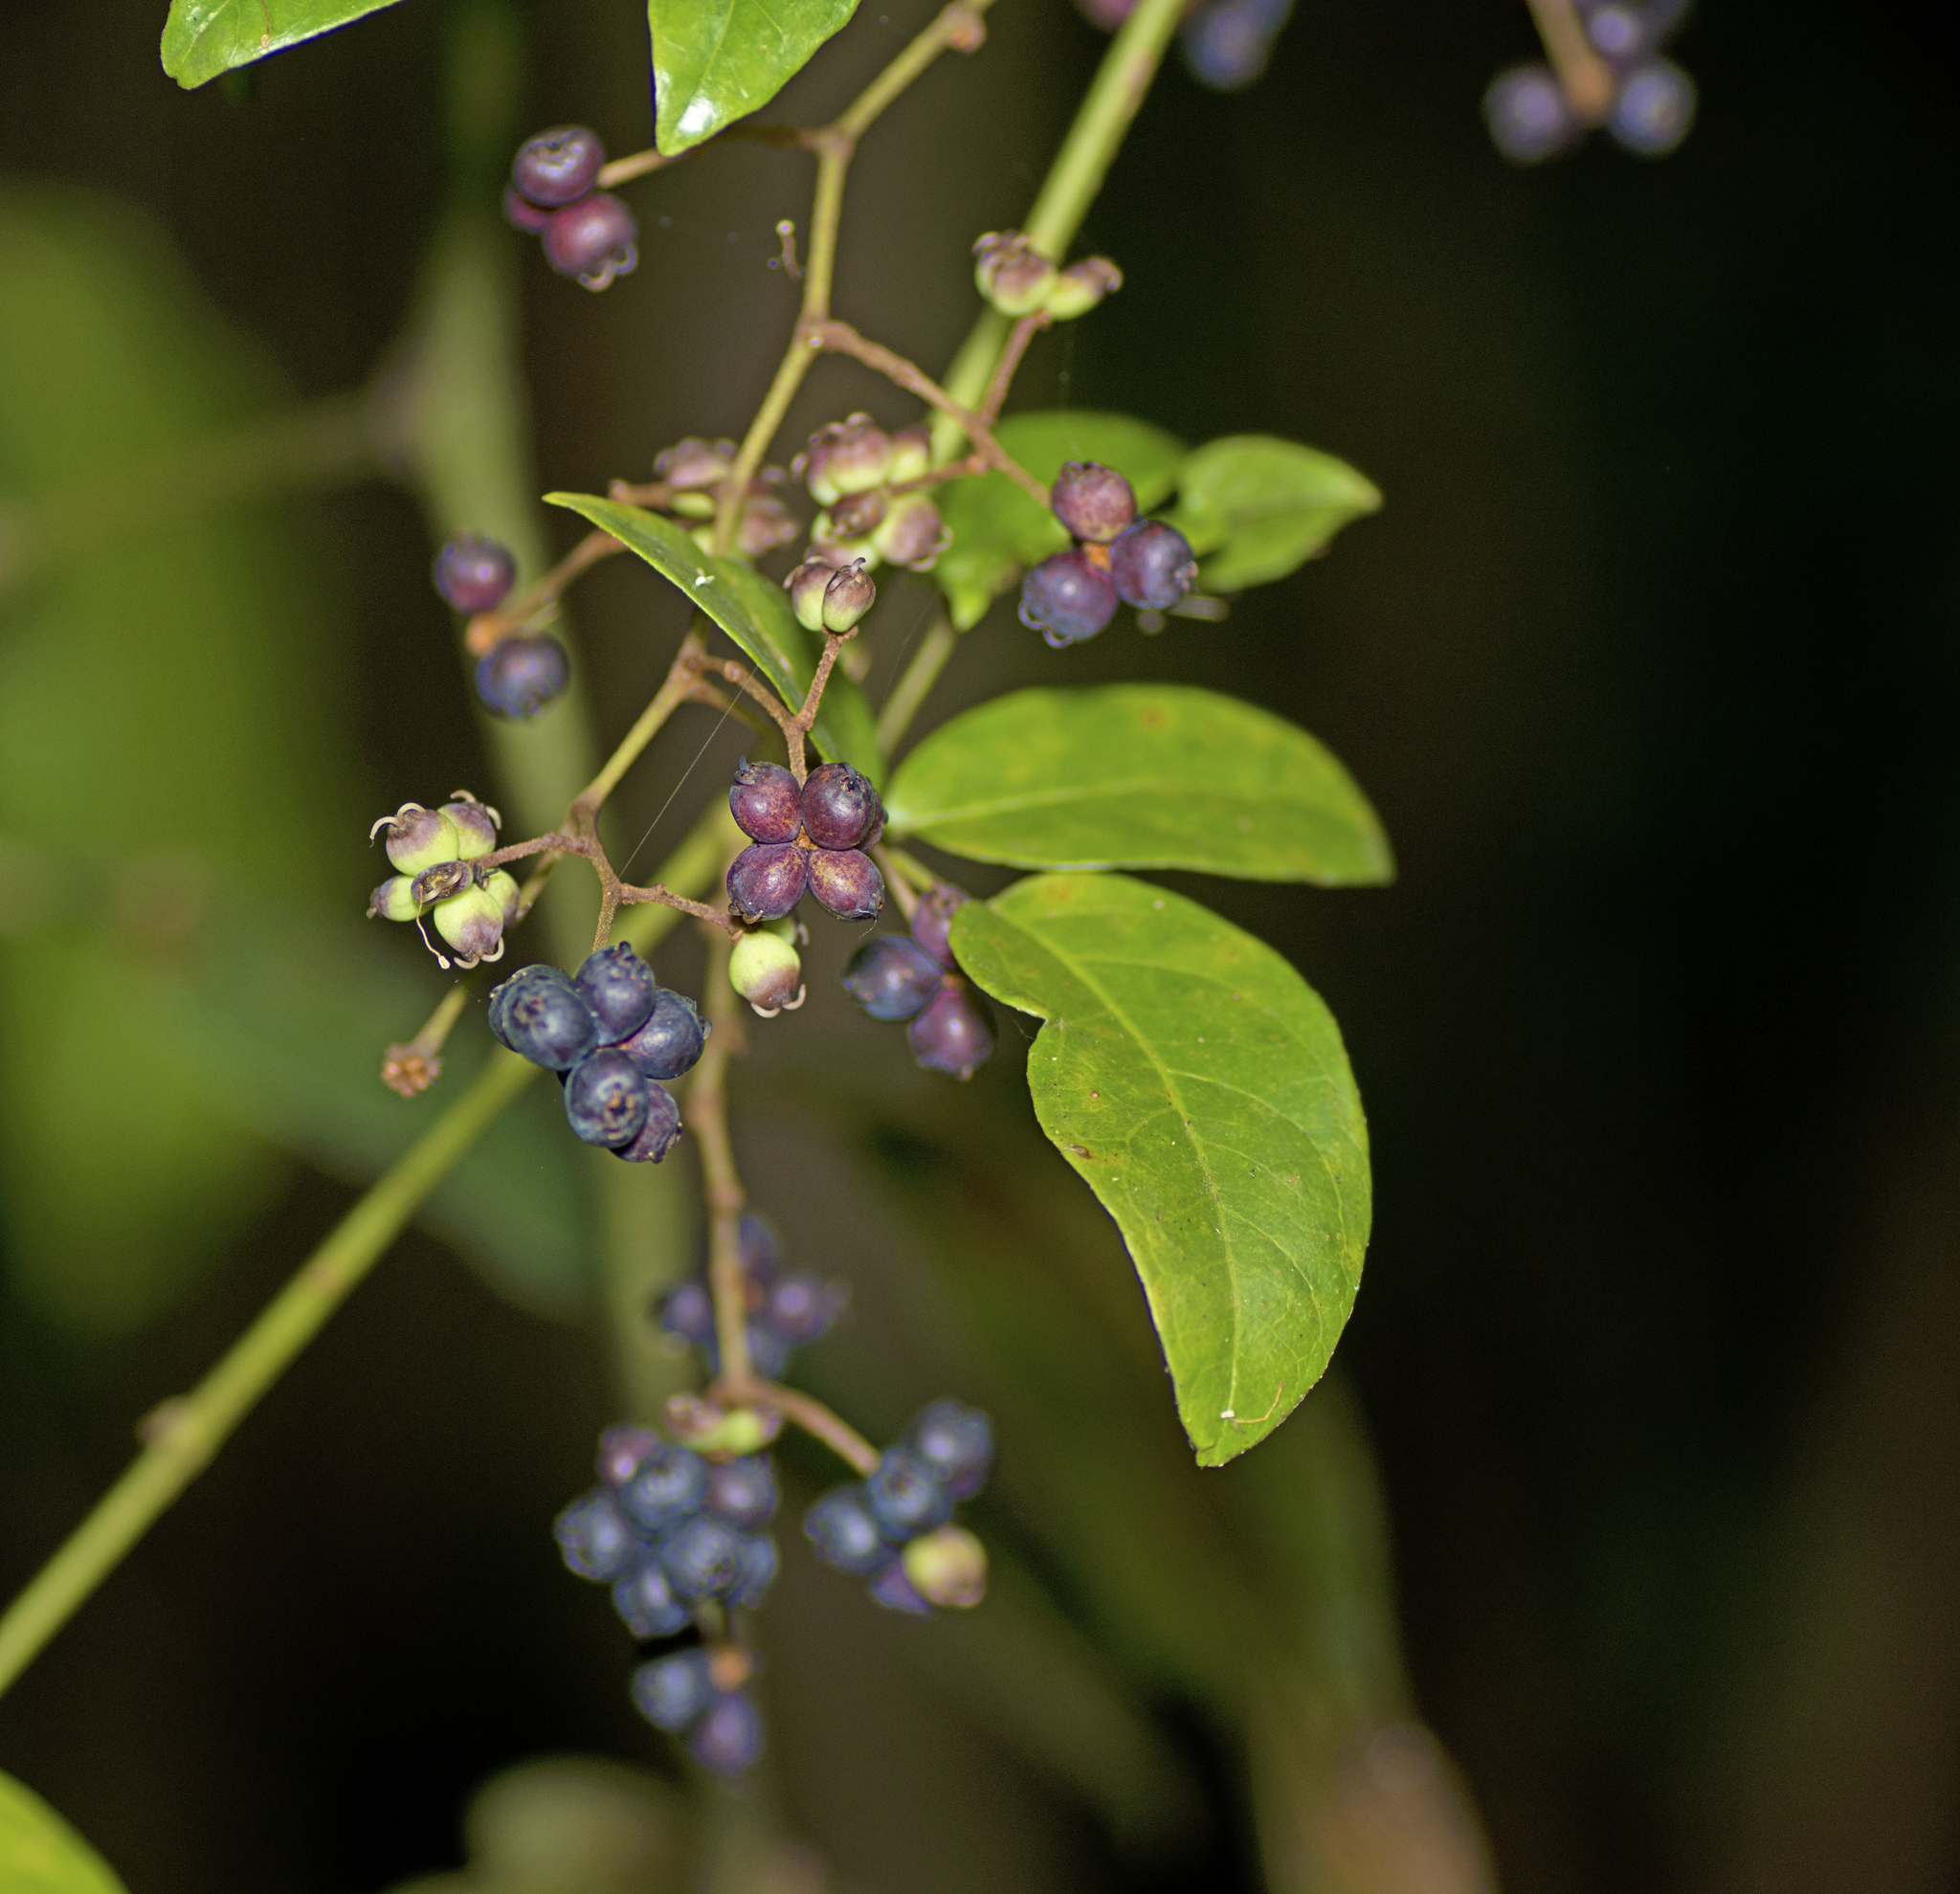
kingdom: Plantae
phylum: Tracheophyta
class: Magnoliopsida
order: Apiales
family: Araliaceae
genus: Cephalaralia
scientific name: Cephalaralia cephalobotrys
